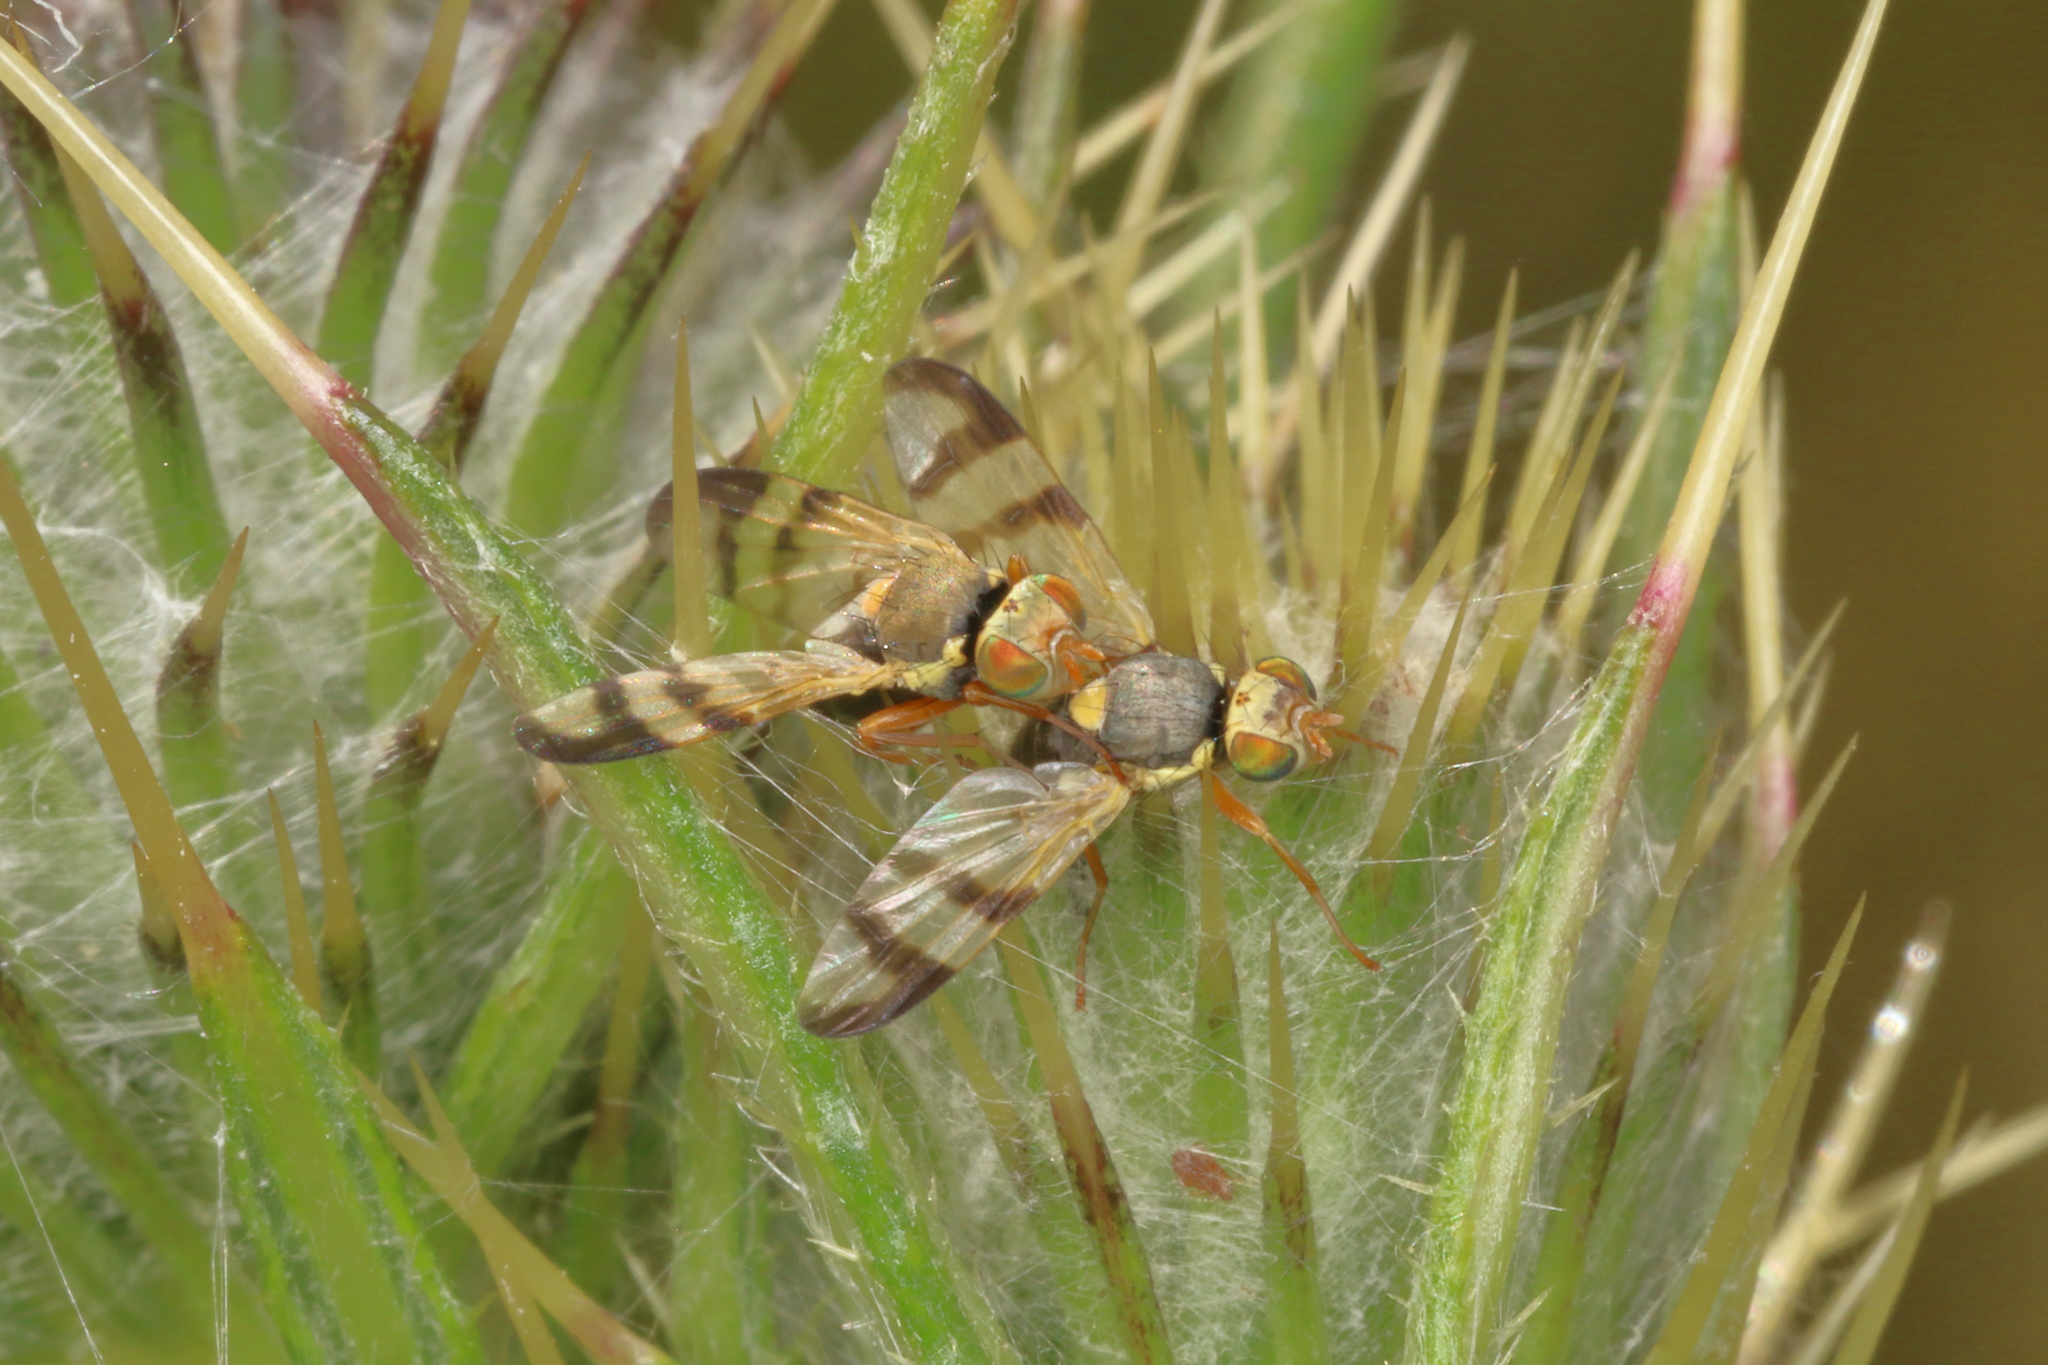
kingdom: Animalia
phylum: Arthropoda
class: Insecta
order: Diptera
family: Tephritidae
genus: Urophora
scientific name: Urophora stylata
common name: Fruit fly
